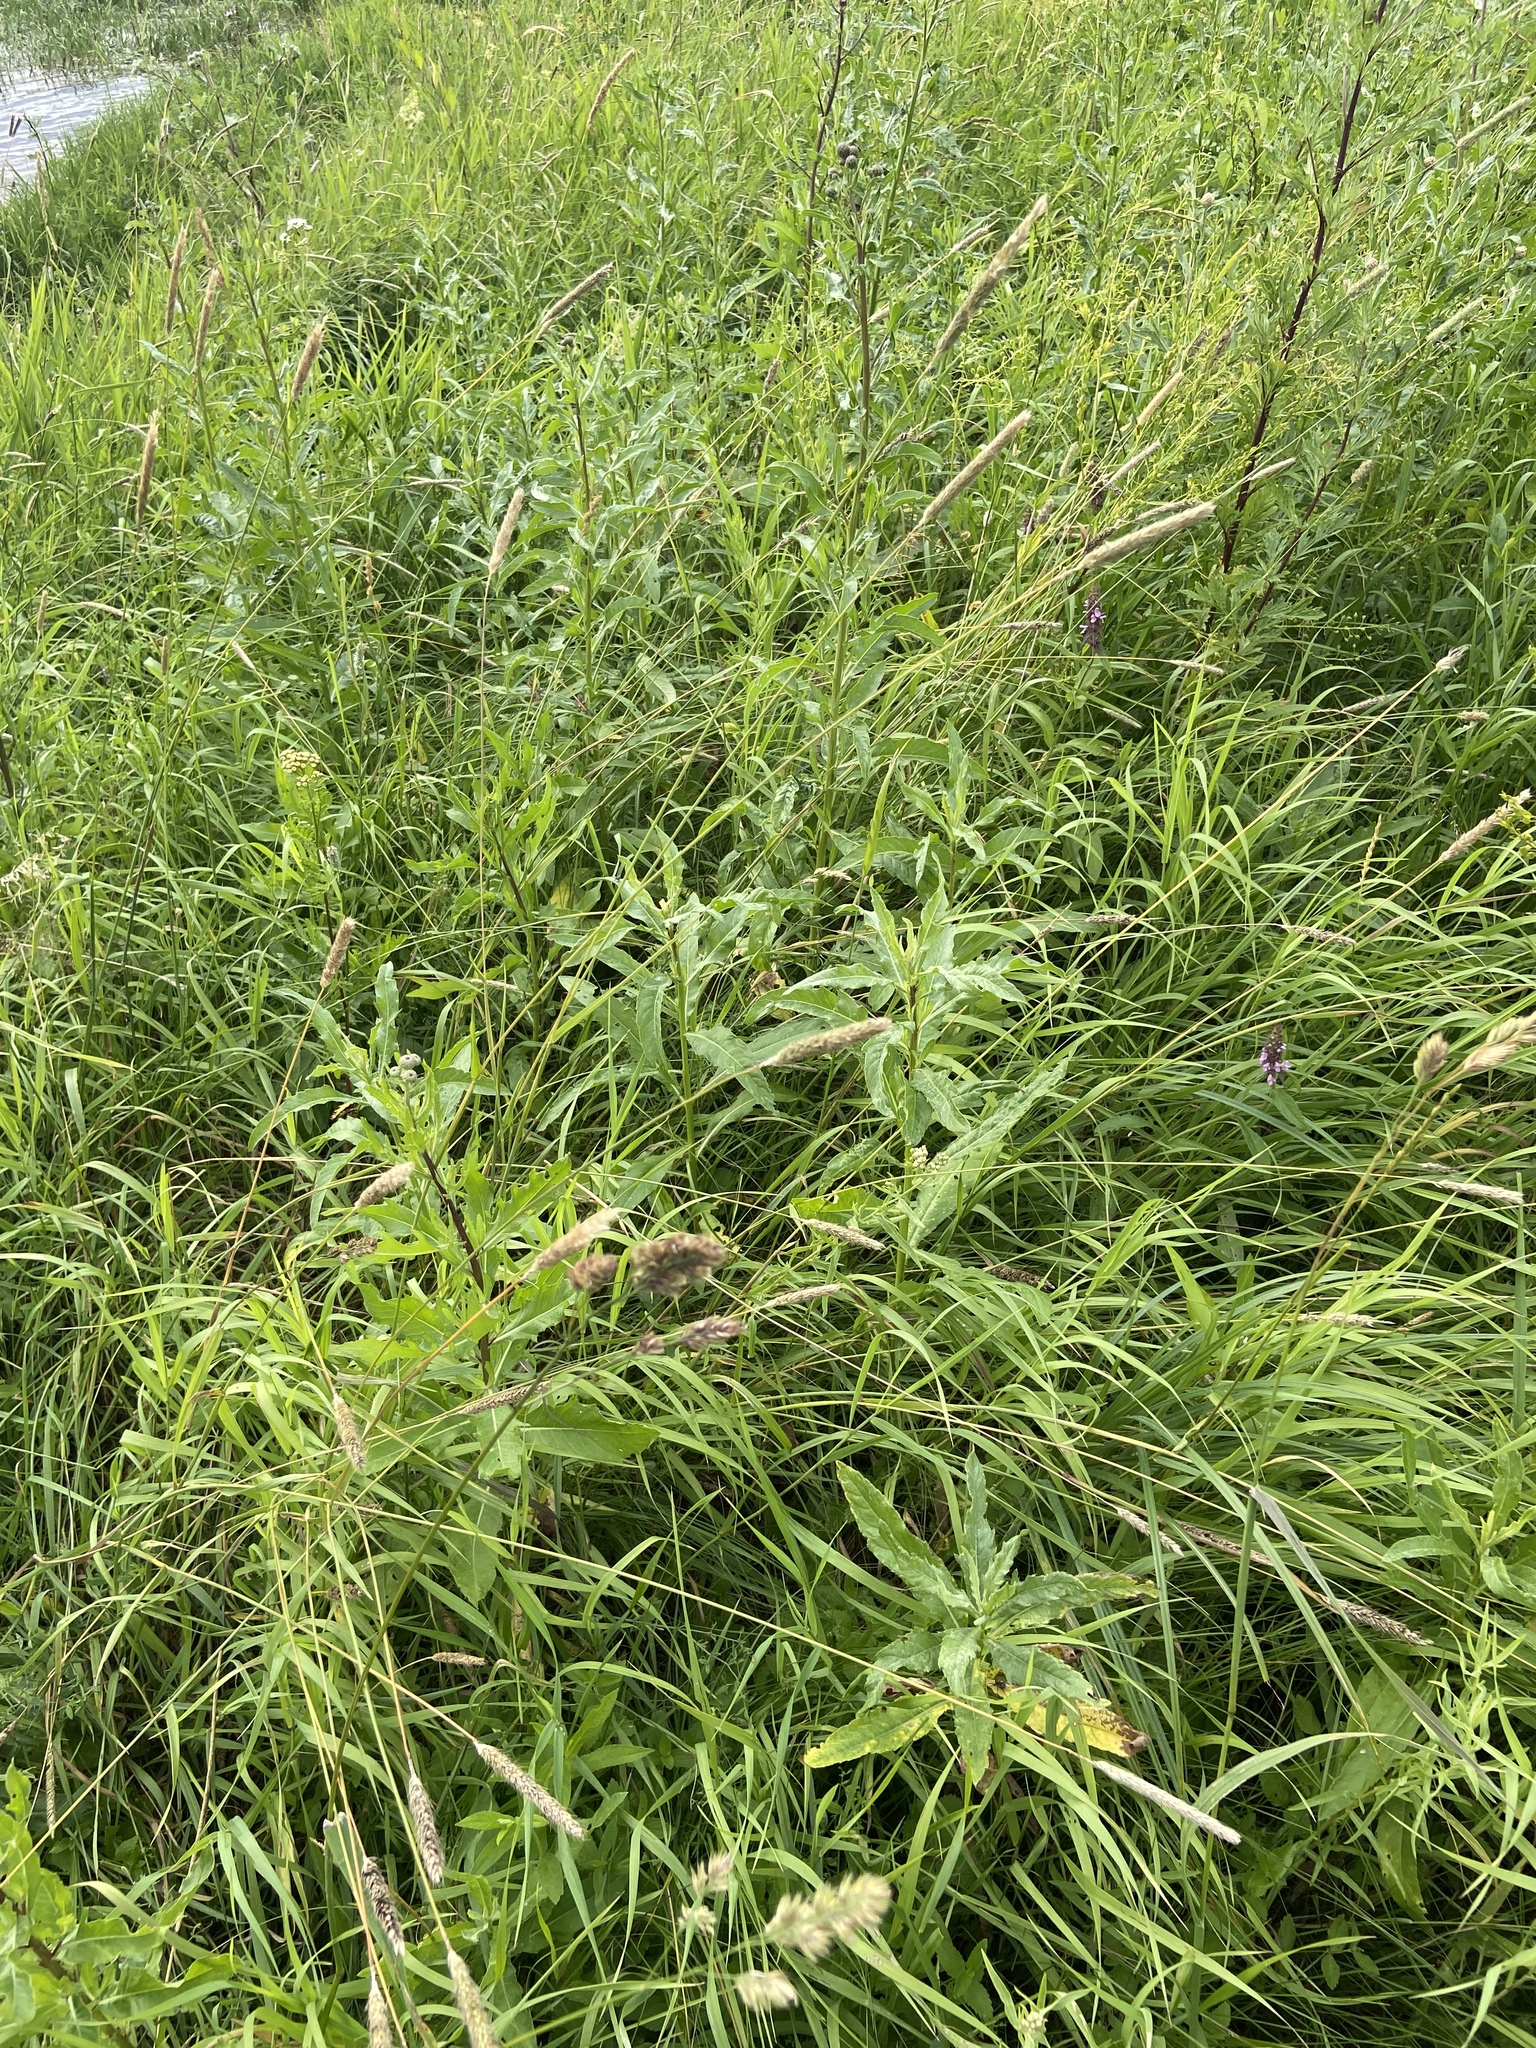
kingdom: Plantae
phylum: Tracheophyta
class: Liliopsida
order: Poales
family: Poaceae
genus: Alopecurus
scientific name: Alopecurus pratensis
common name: Meadow foxtail
